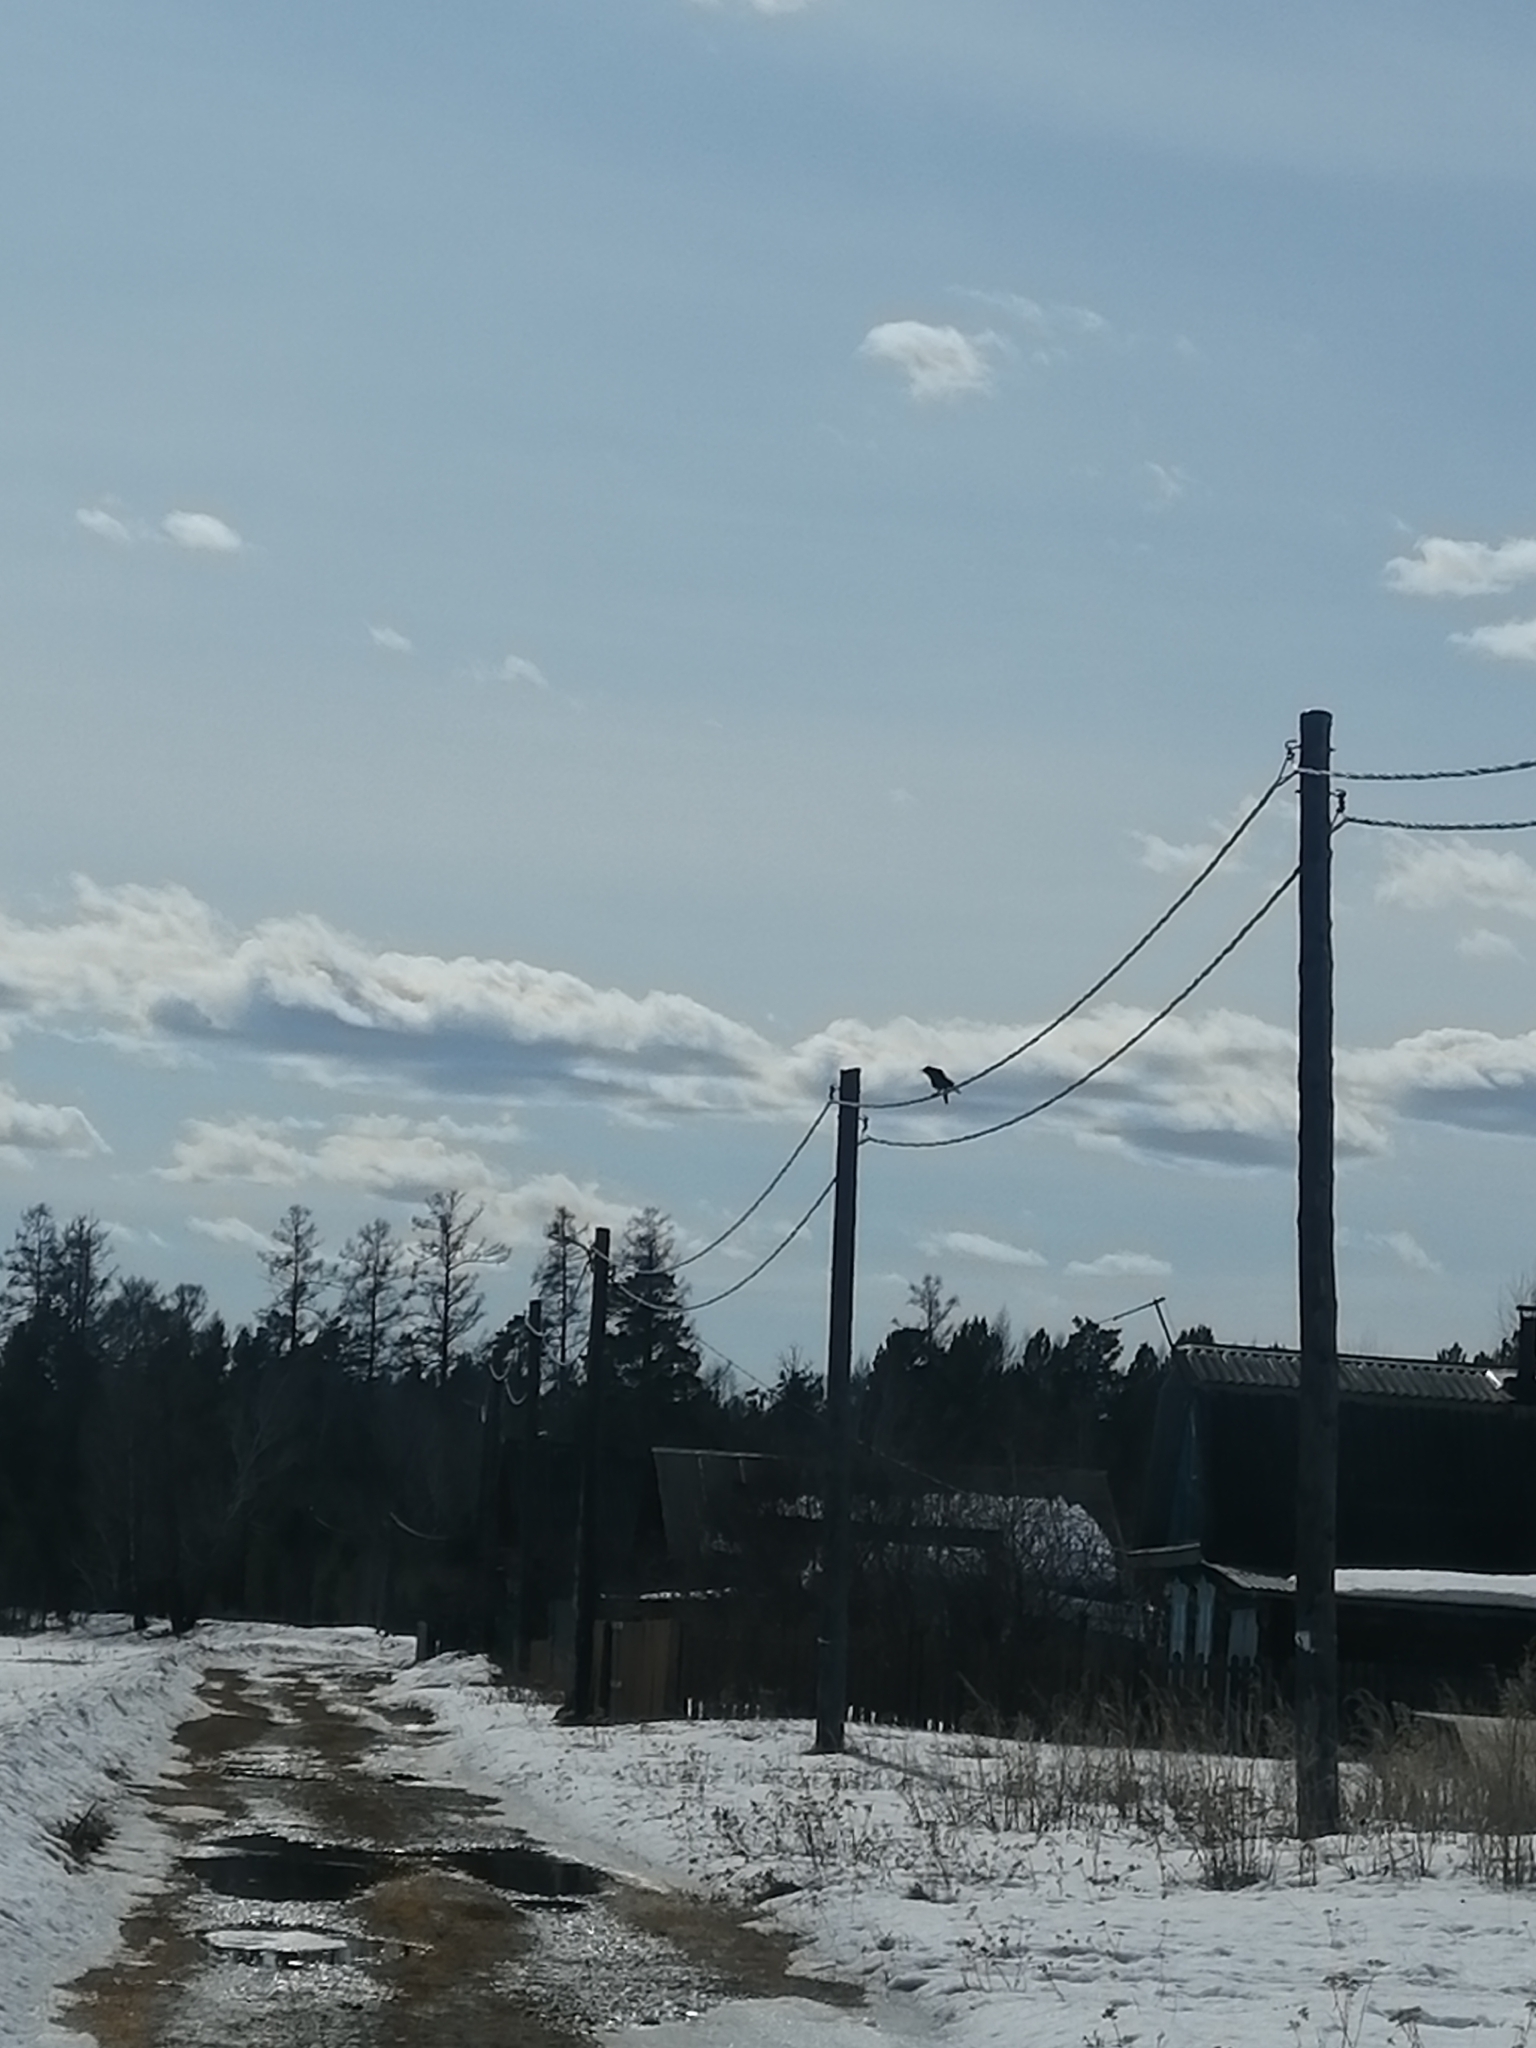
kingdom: Animalia
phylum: Chordata
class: Aves
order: Passeriformes
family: Corvidae
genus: Corvus
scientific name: Corvus corone
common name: Carrion crow
